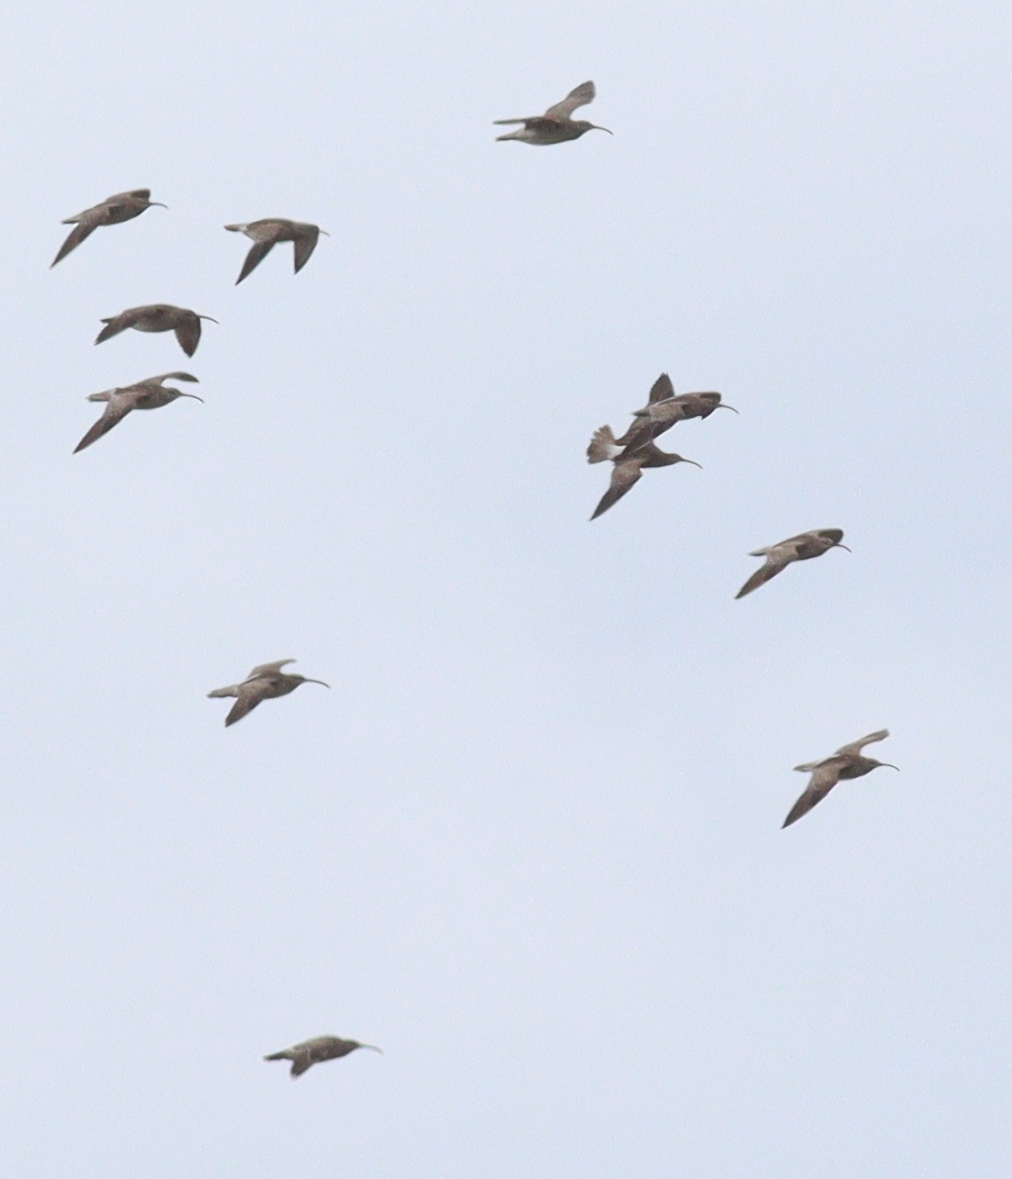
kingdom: Animalia
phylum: Chordata
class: Aves
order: Charadriiformes
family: Scolopacidae
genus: Numenius
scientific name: Numenius phaeopus
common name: Whimbrel
